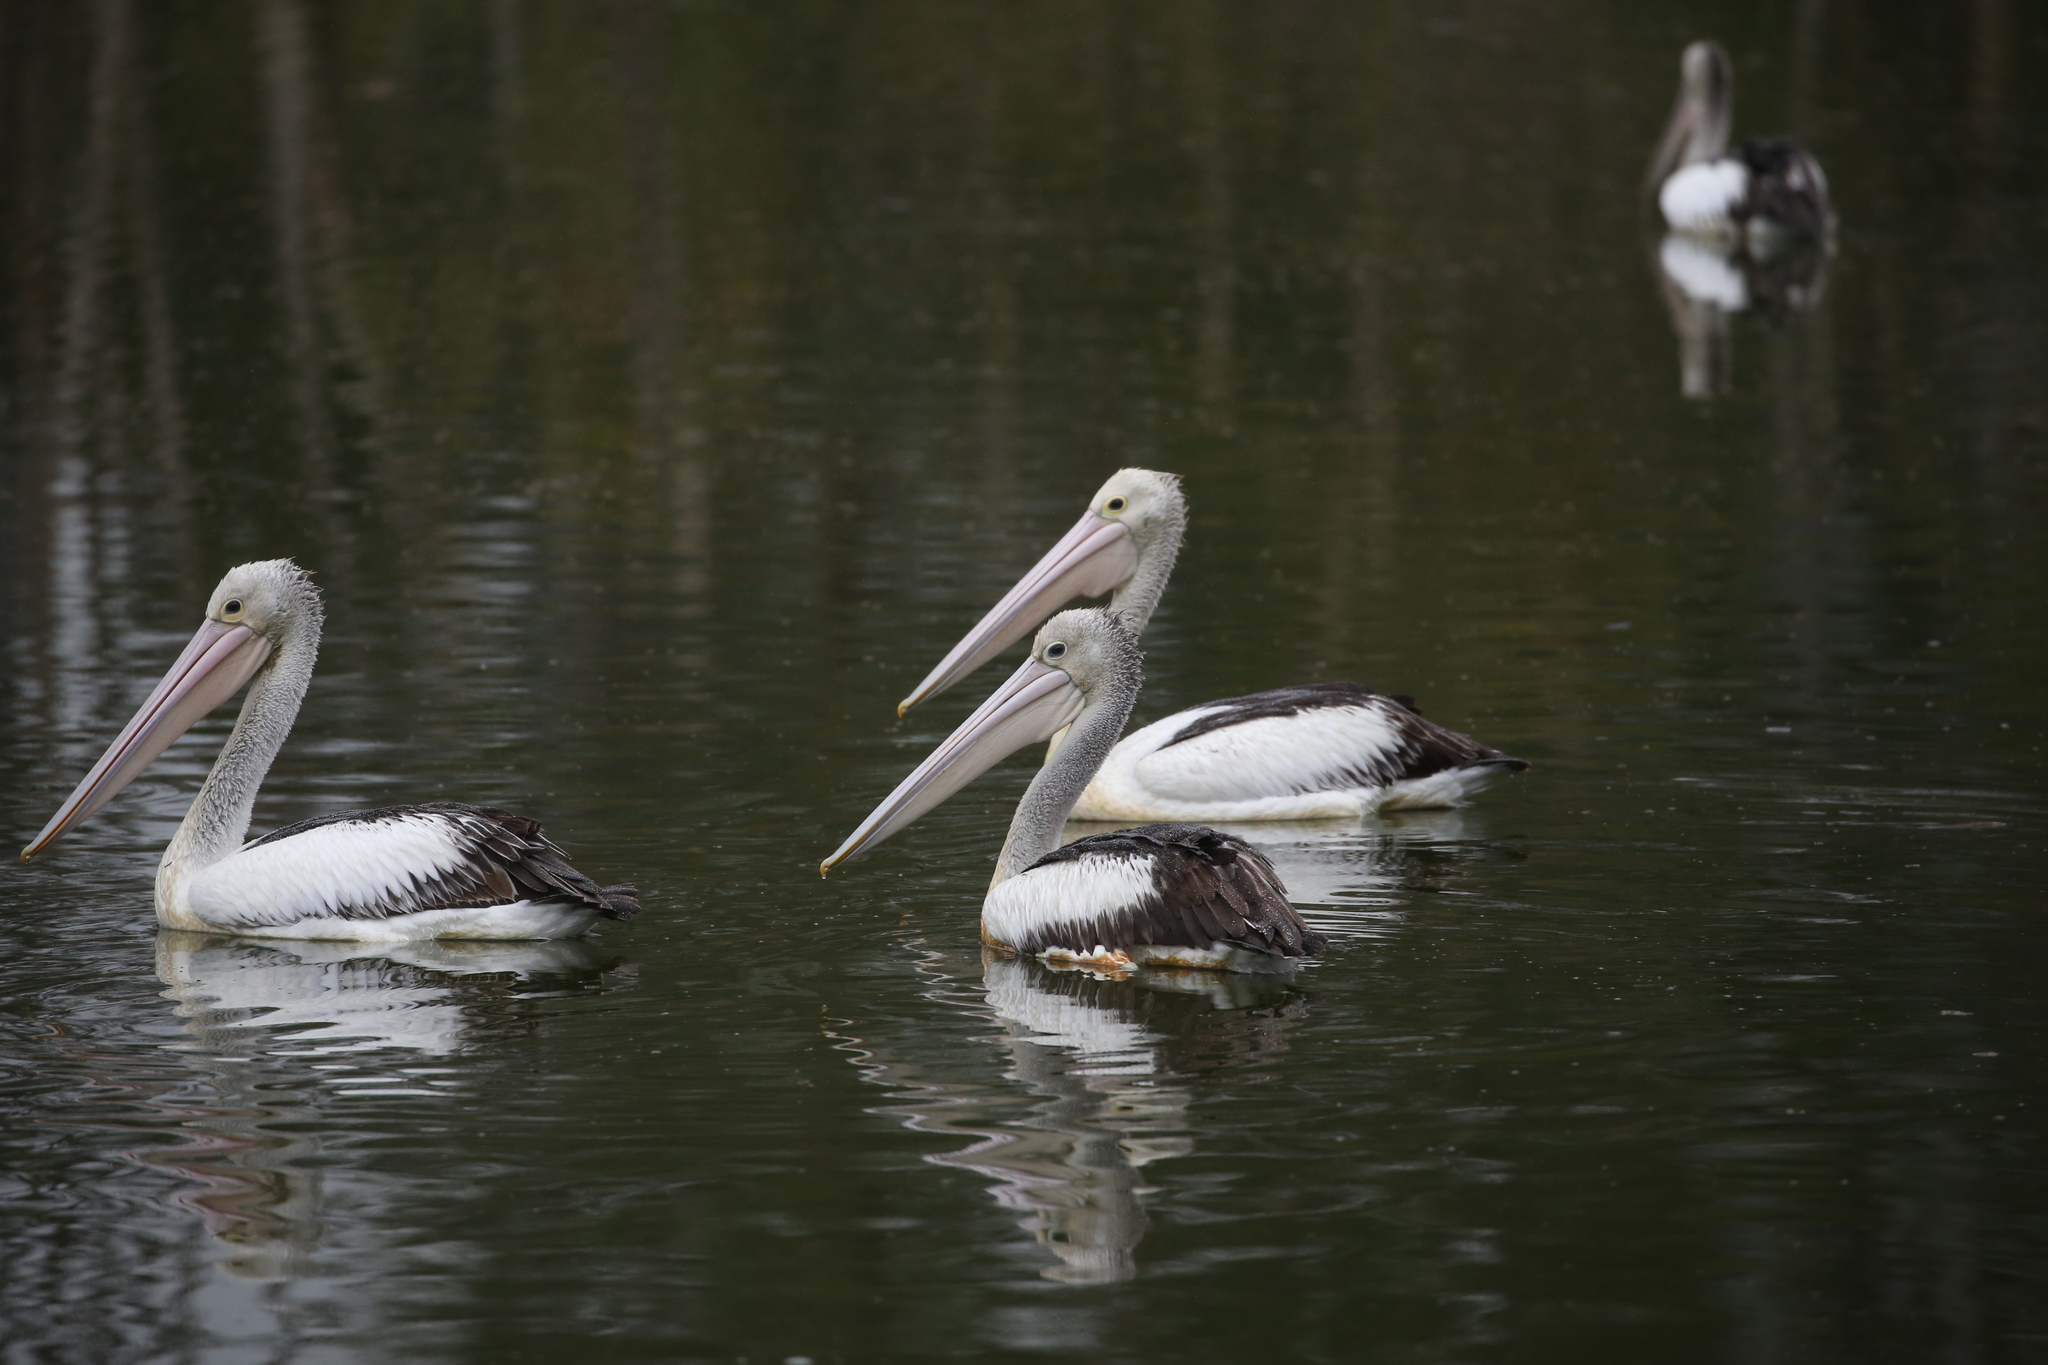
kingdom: Animalia
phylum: Chordata
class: Aves
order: Pelecaniformes
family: Pelecanidae
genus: Pelecanus
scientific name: Pelecanus conspicillatus
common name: Australian pelican
